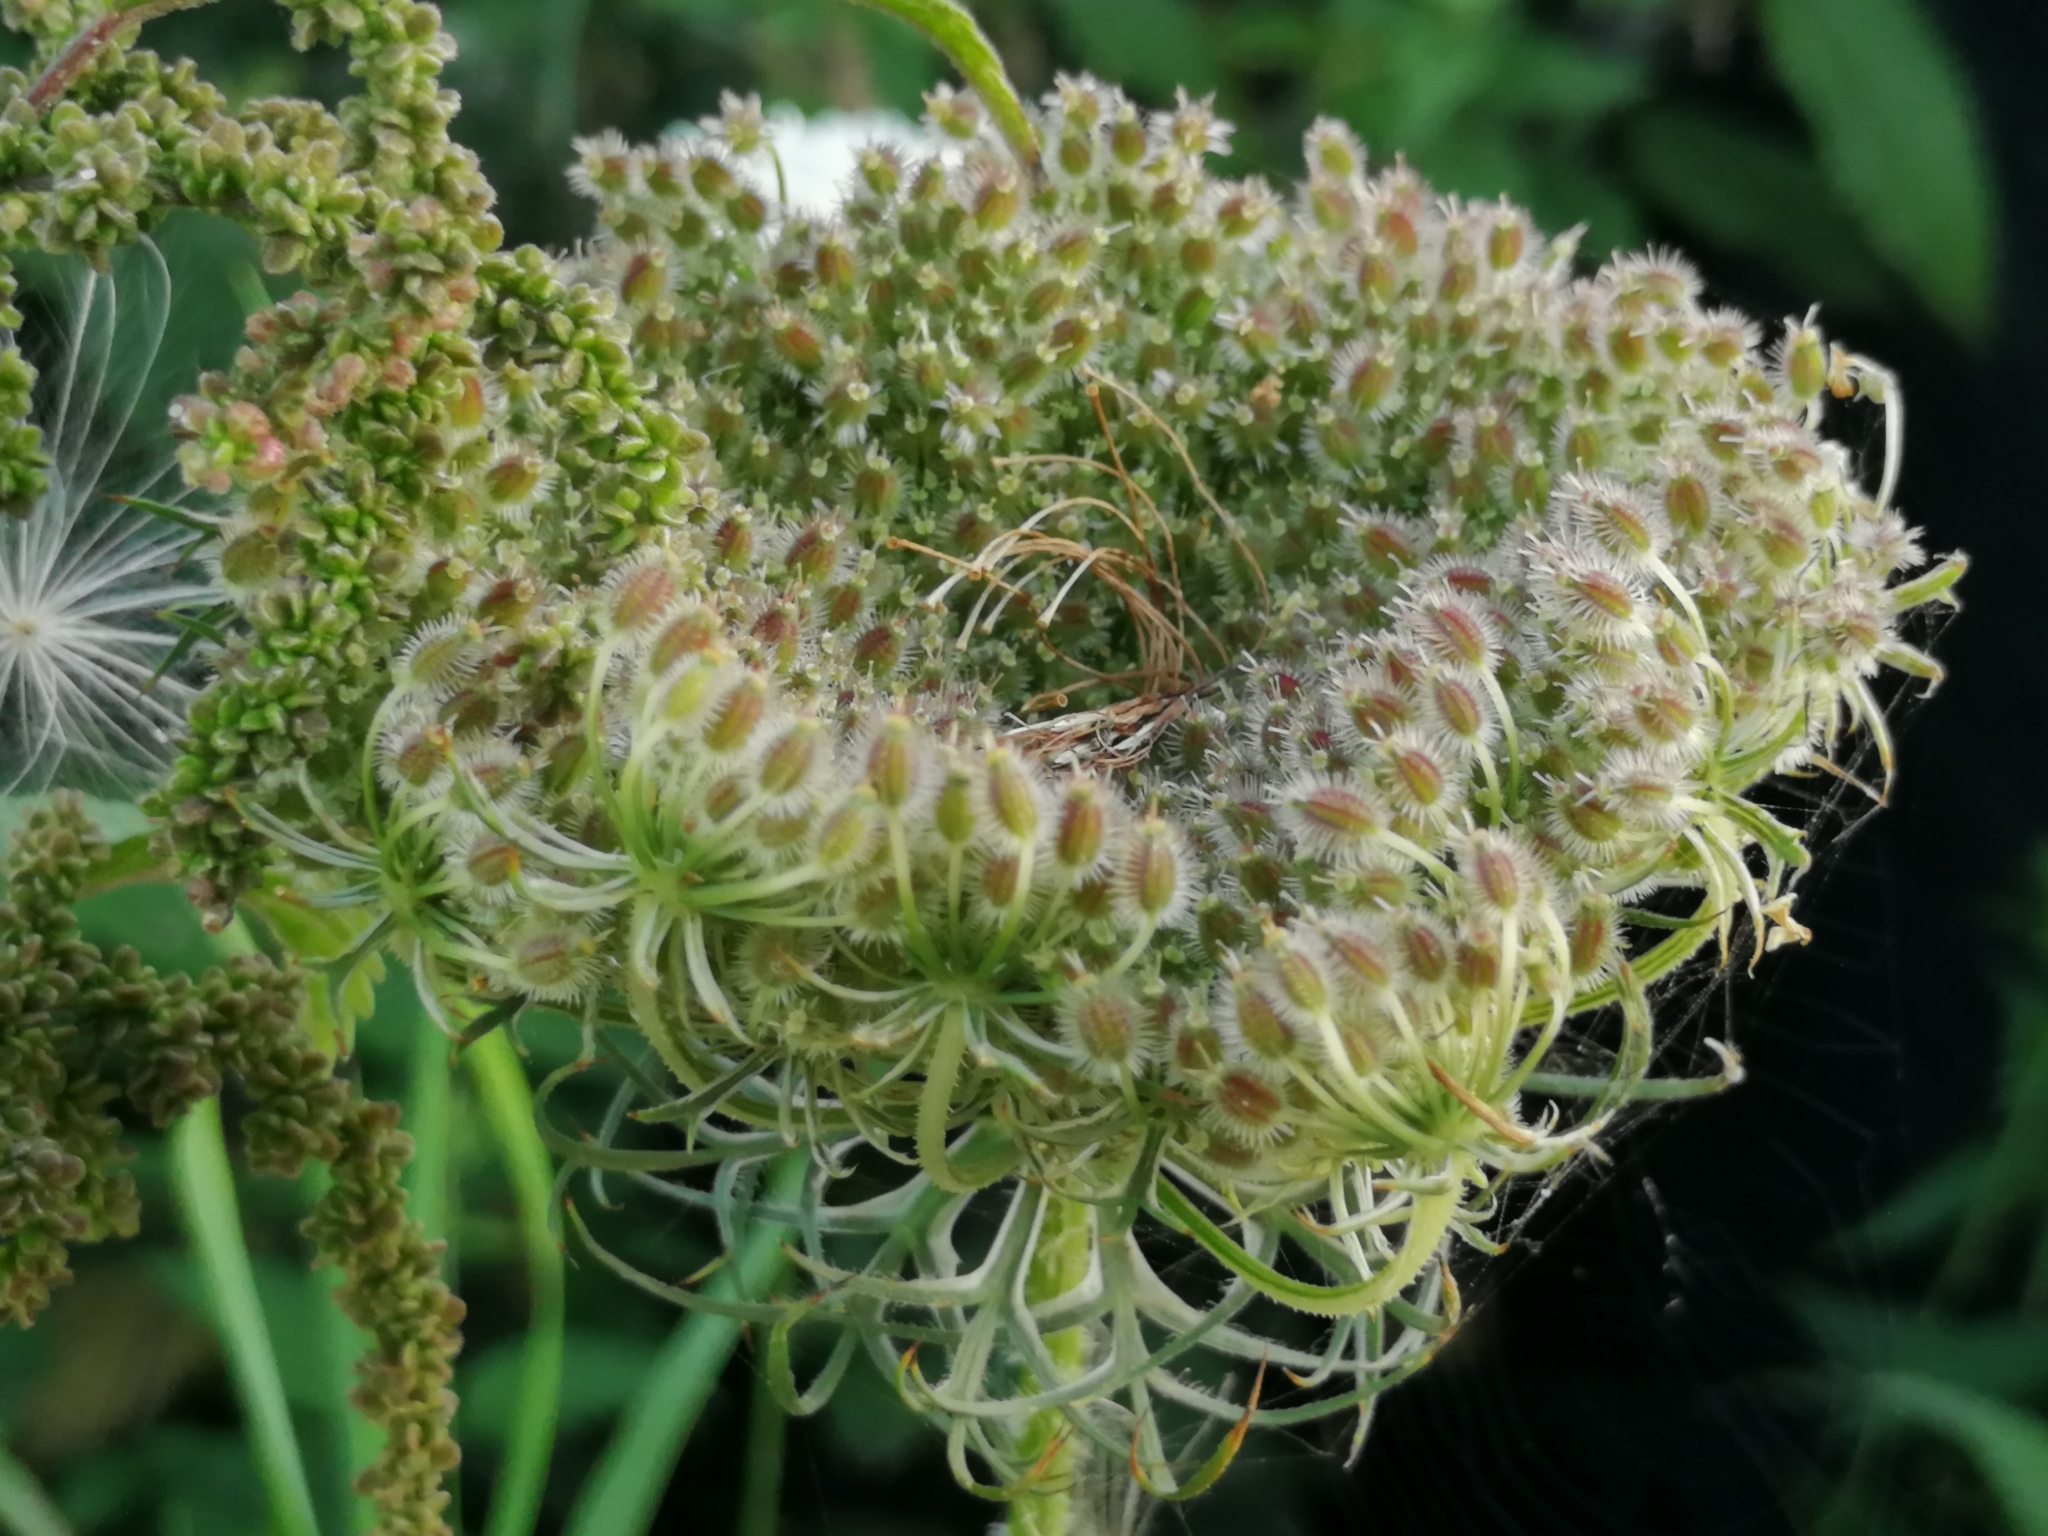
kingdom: Plantae
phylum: Tracheophyta
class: Magnoliopsida
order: Apiales
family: Apiaceae
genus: Daucus
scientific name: Daucus carota
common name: Wild carrot
